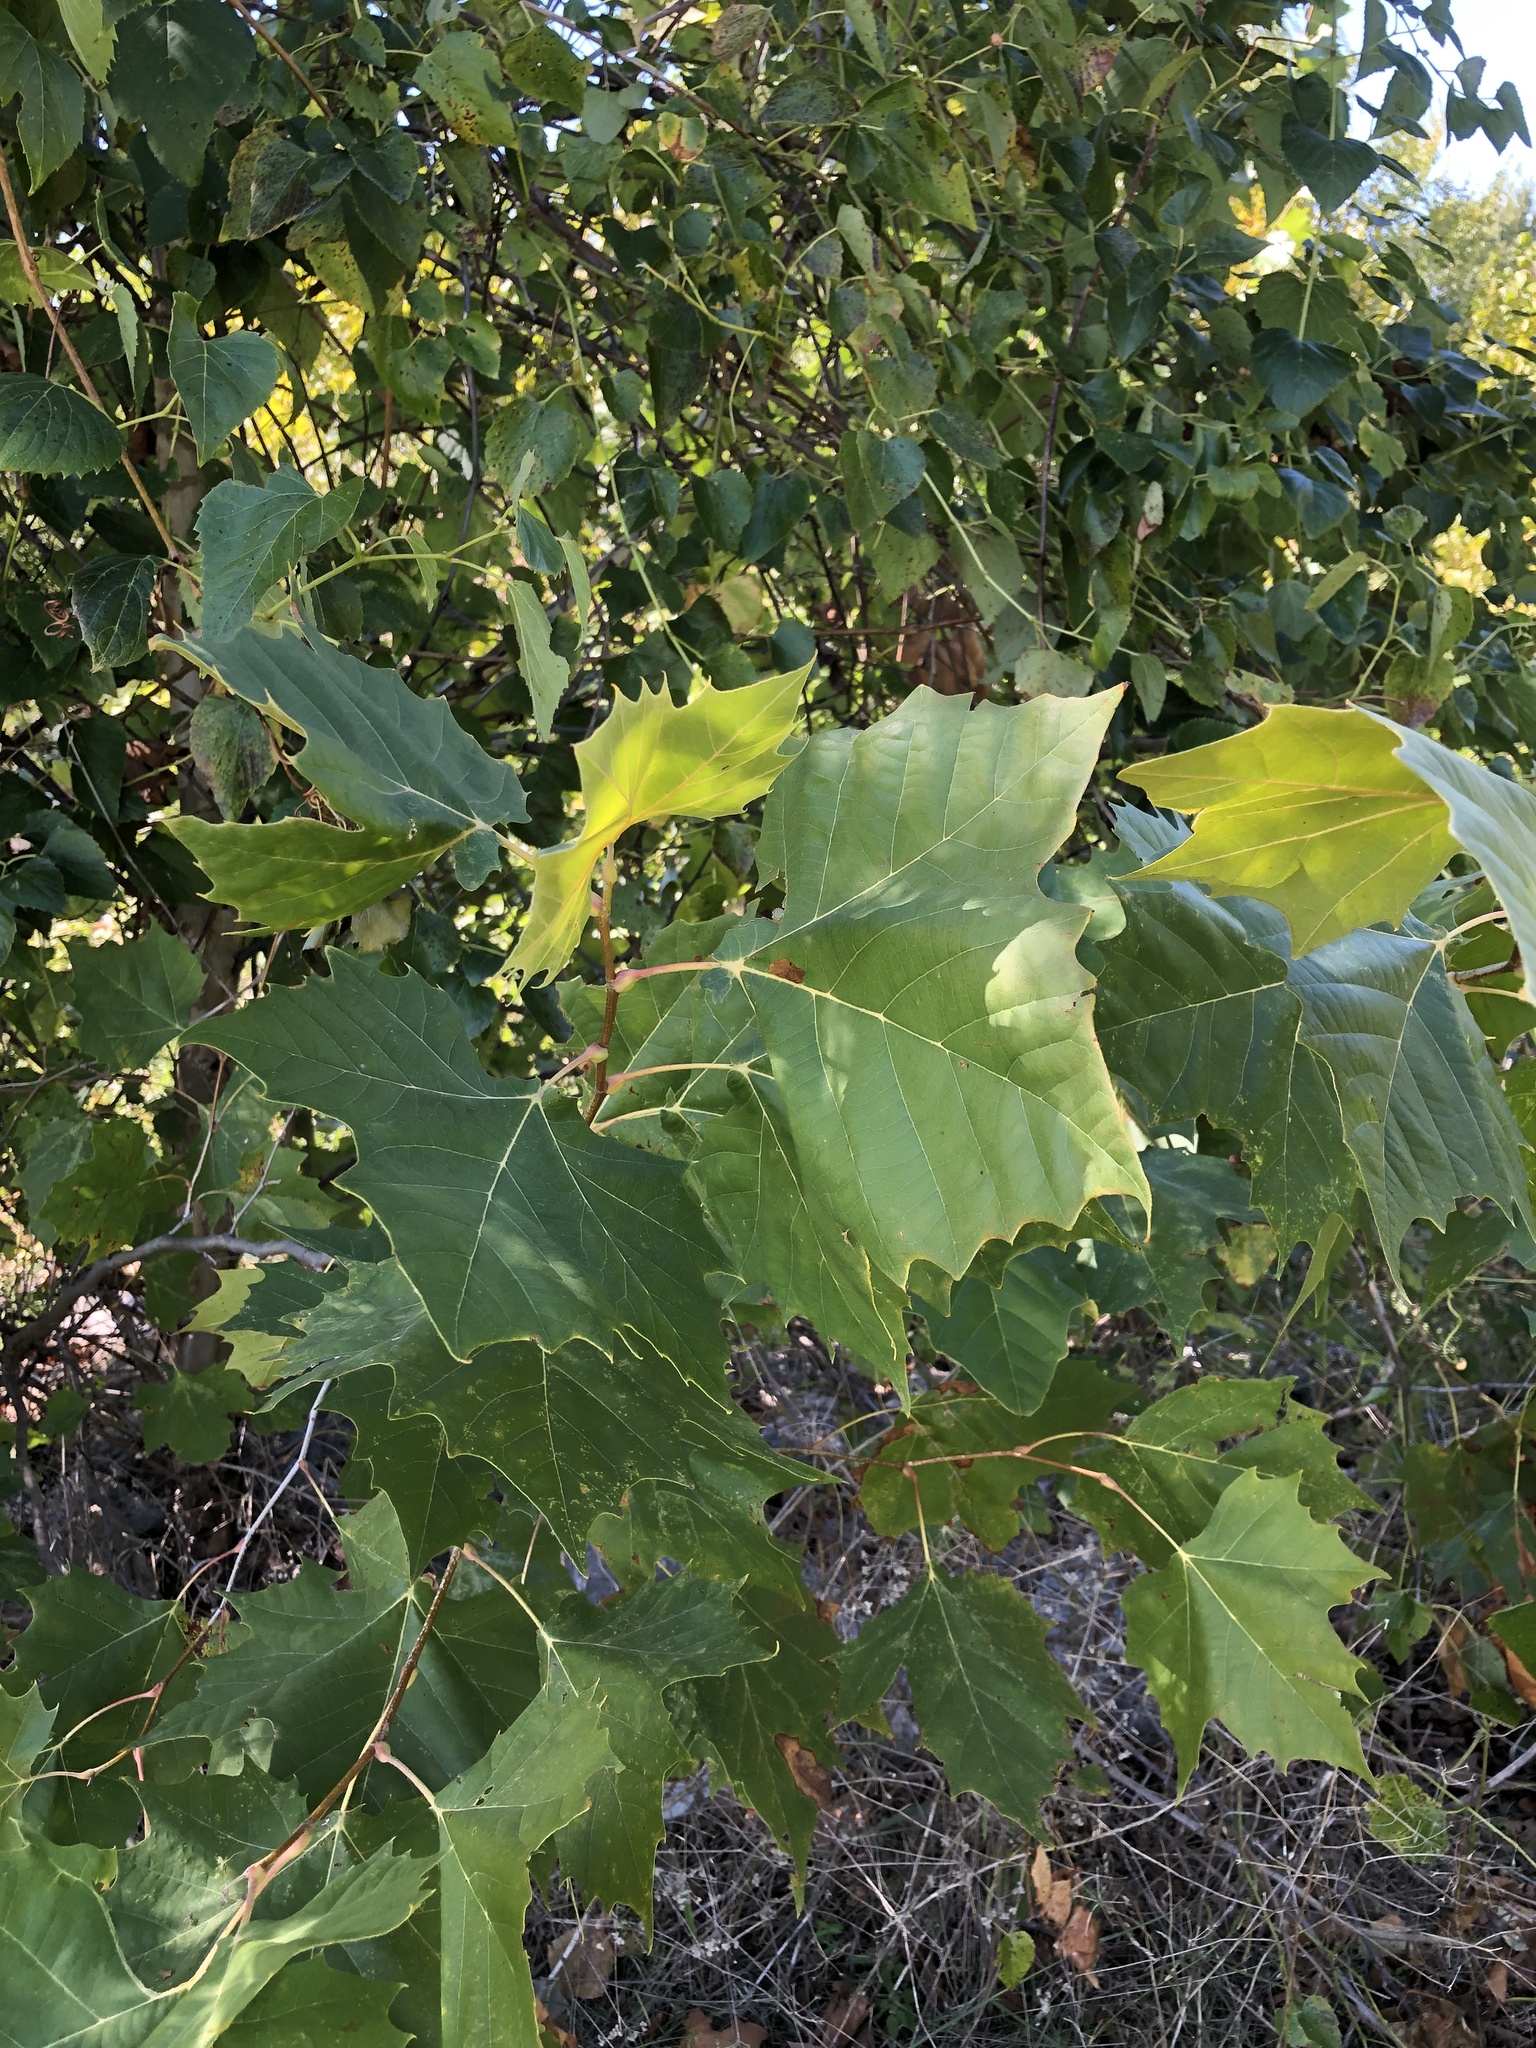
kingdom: Plantae
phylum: Tracheophyta
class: Magnoliopsida
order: Proteales
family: Platanaceae
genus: Platanus
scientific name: Platanus occidentalis
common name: American sycamore
